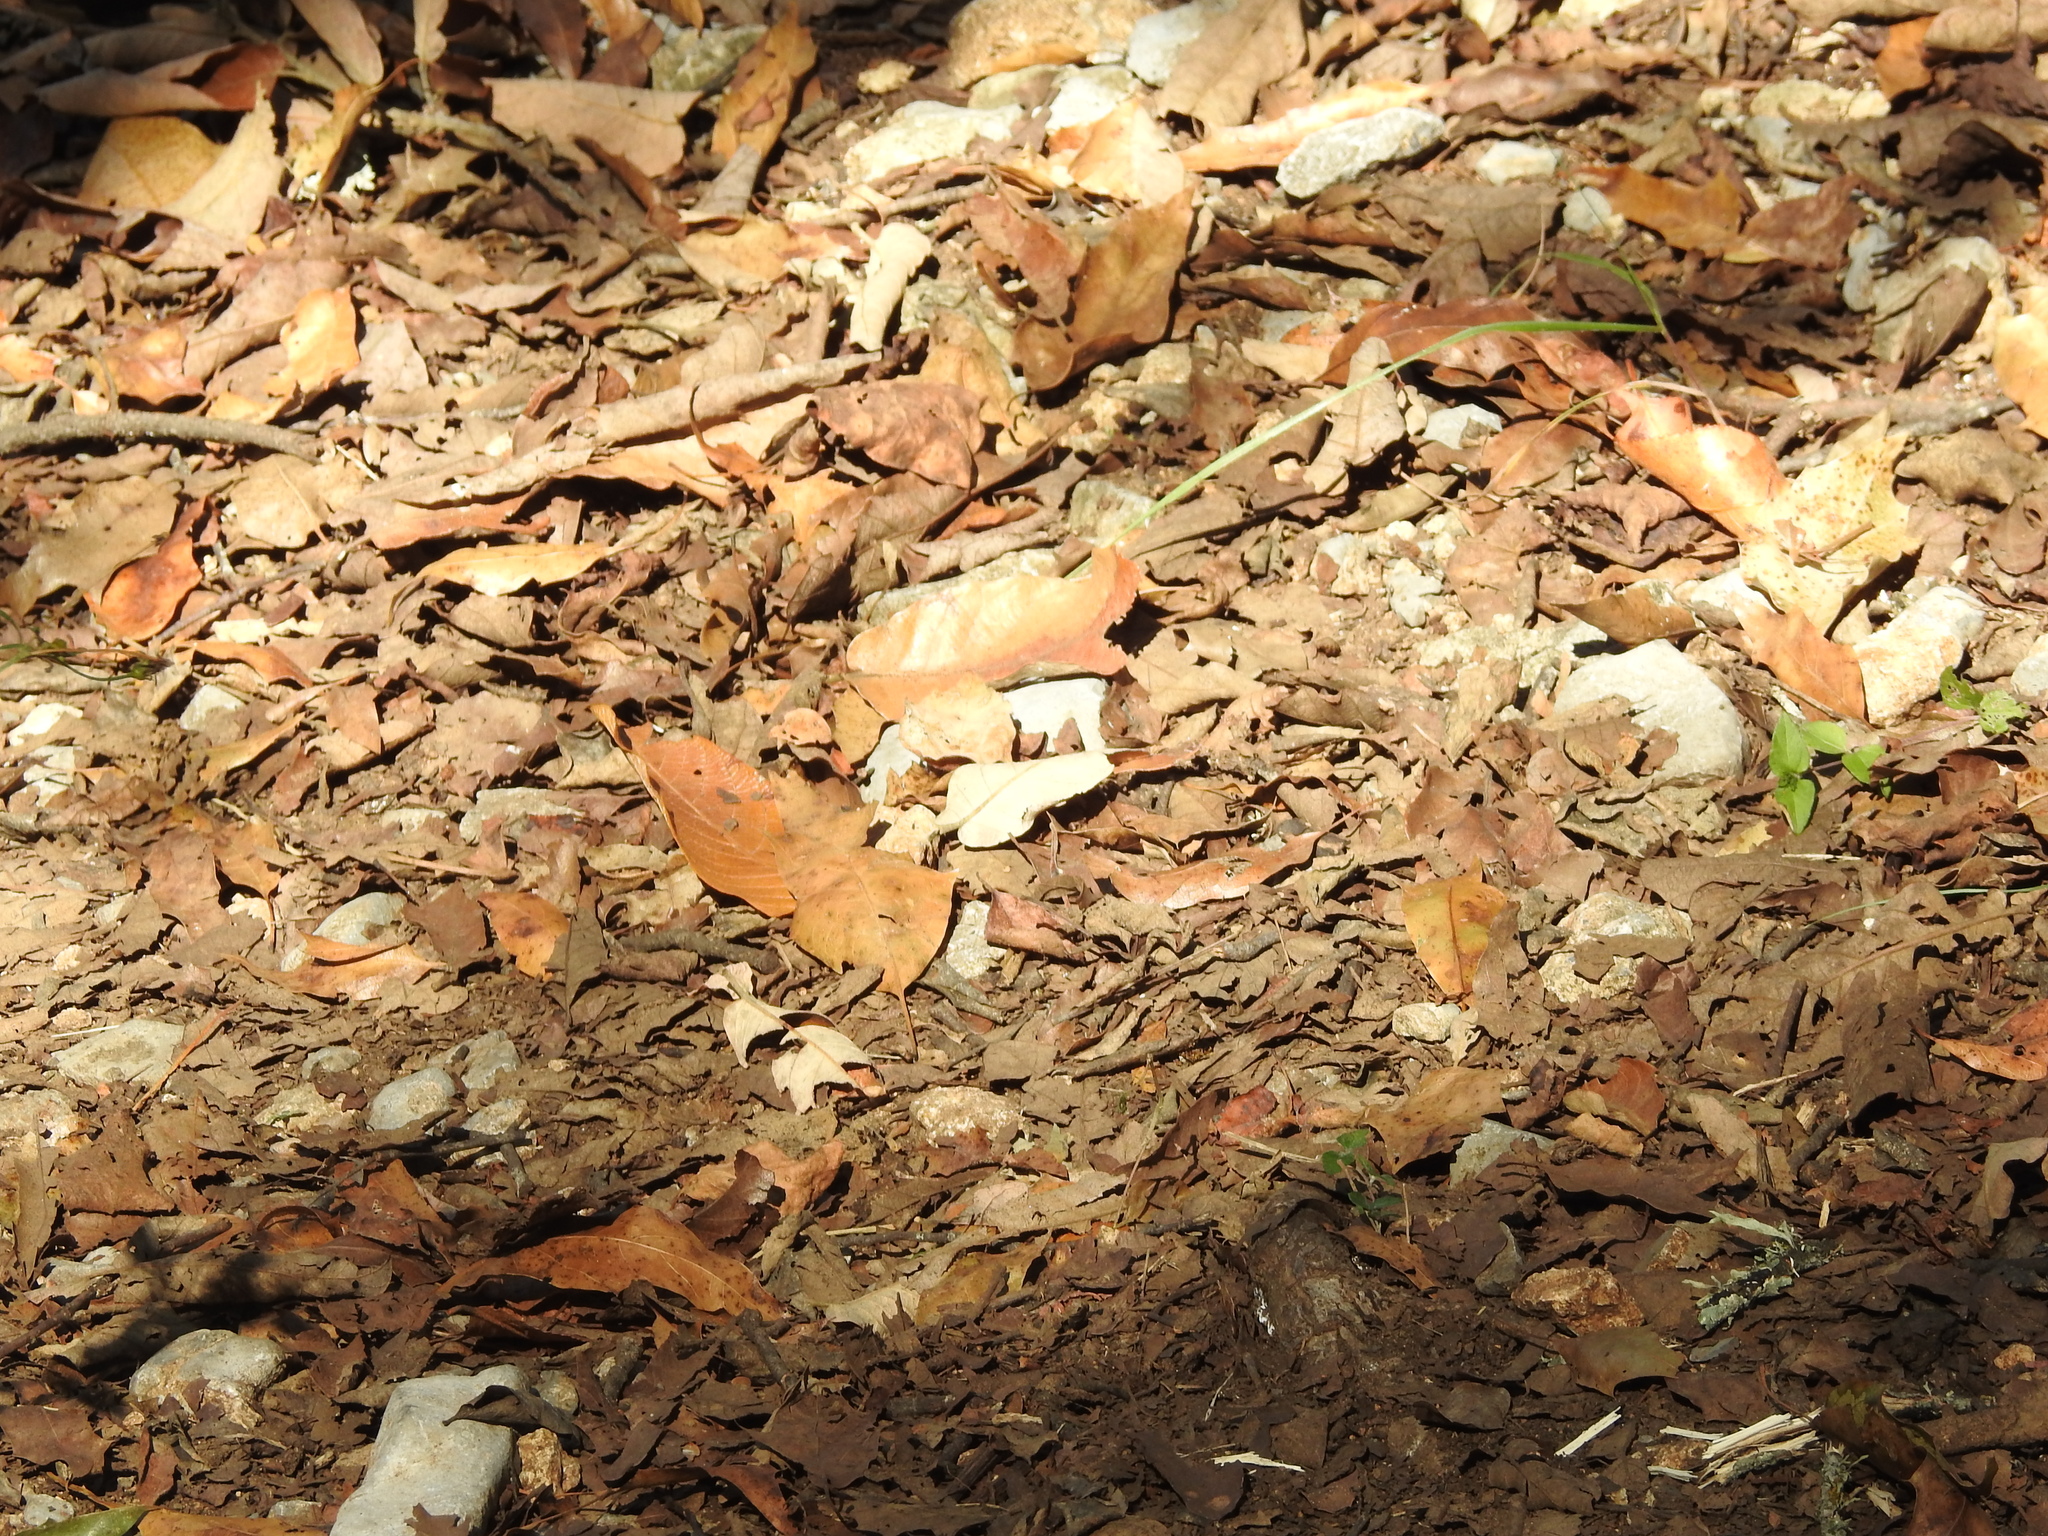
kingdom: Animalia
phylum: Arthropoda
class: Insecta
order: Lepidoptera
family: Nymphalidae
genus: Anaea
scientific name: Anaea aidea
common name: Tropical leafwing
